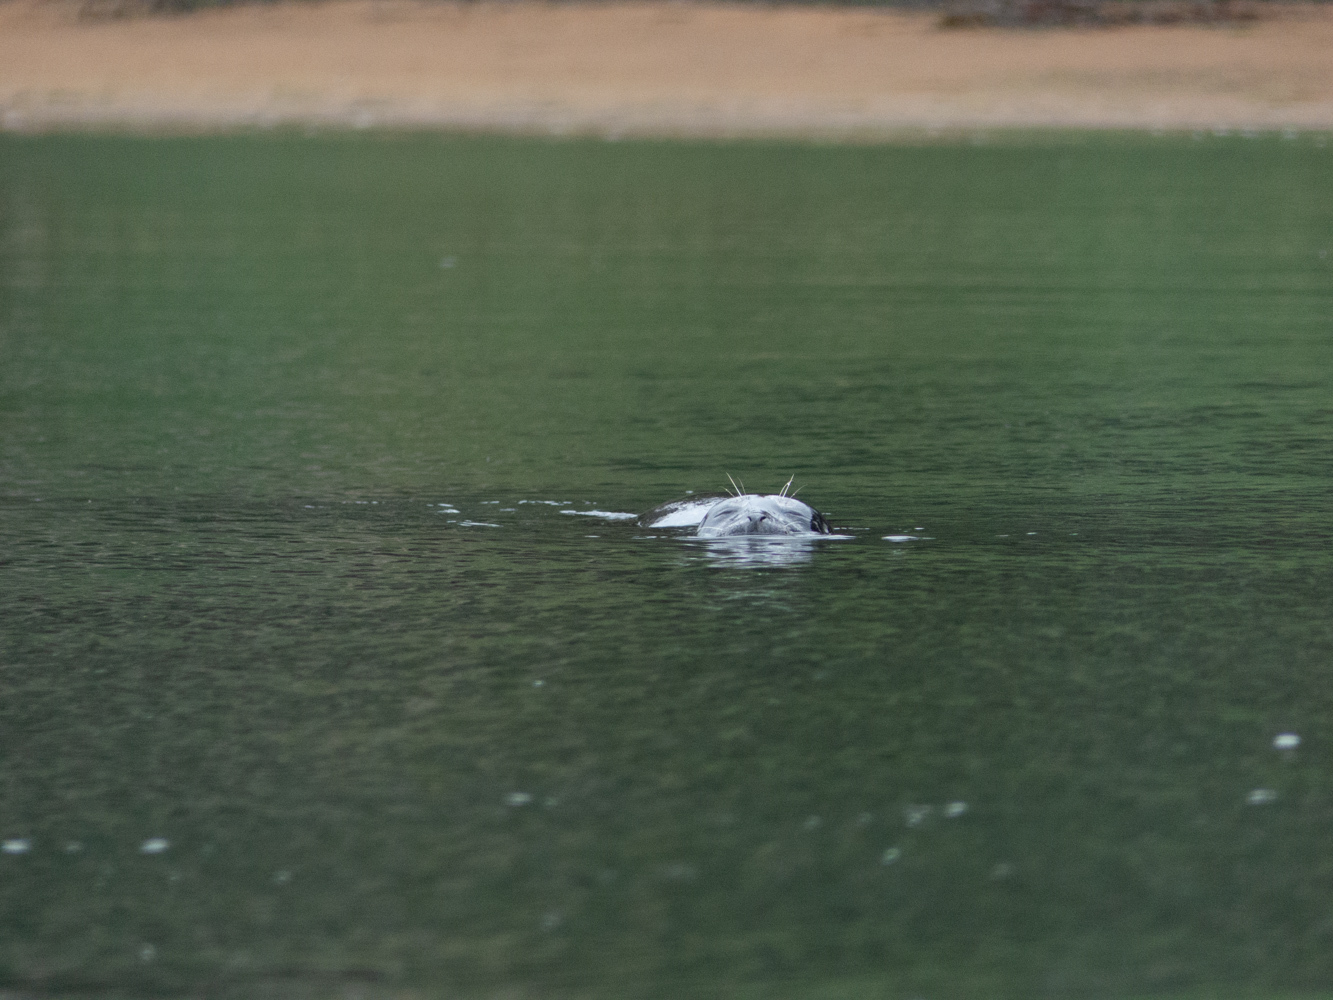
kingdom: Animalia
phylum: Chordata
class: Mammalia
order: Carnivora
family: Phocidae
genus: Phoca
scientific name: Phoca vitulina
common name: Harbor seal
